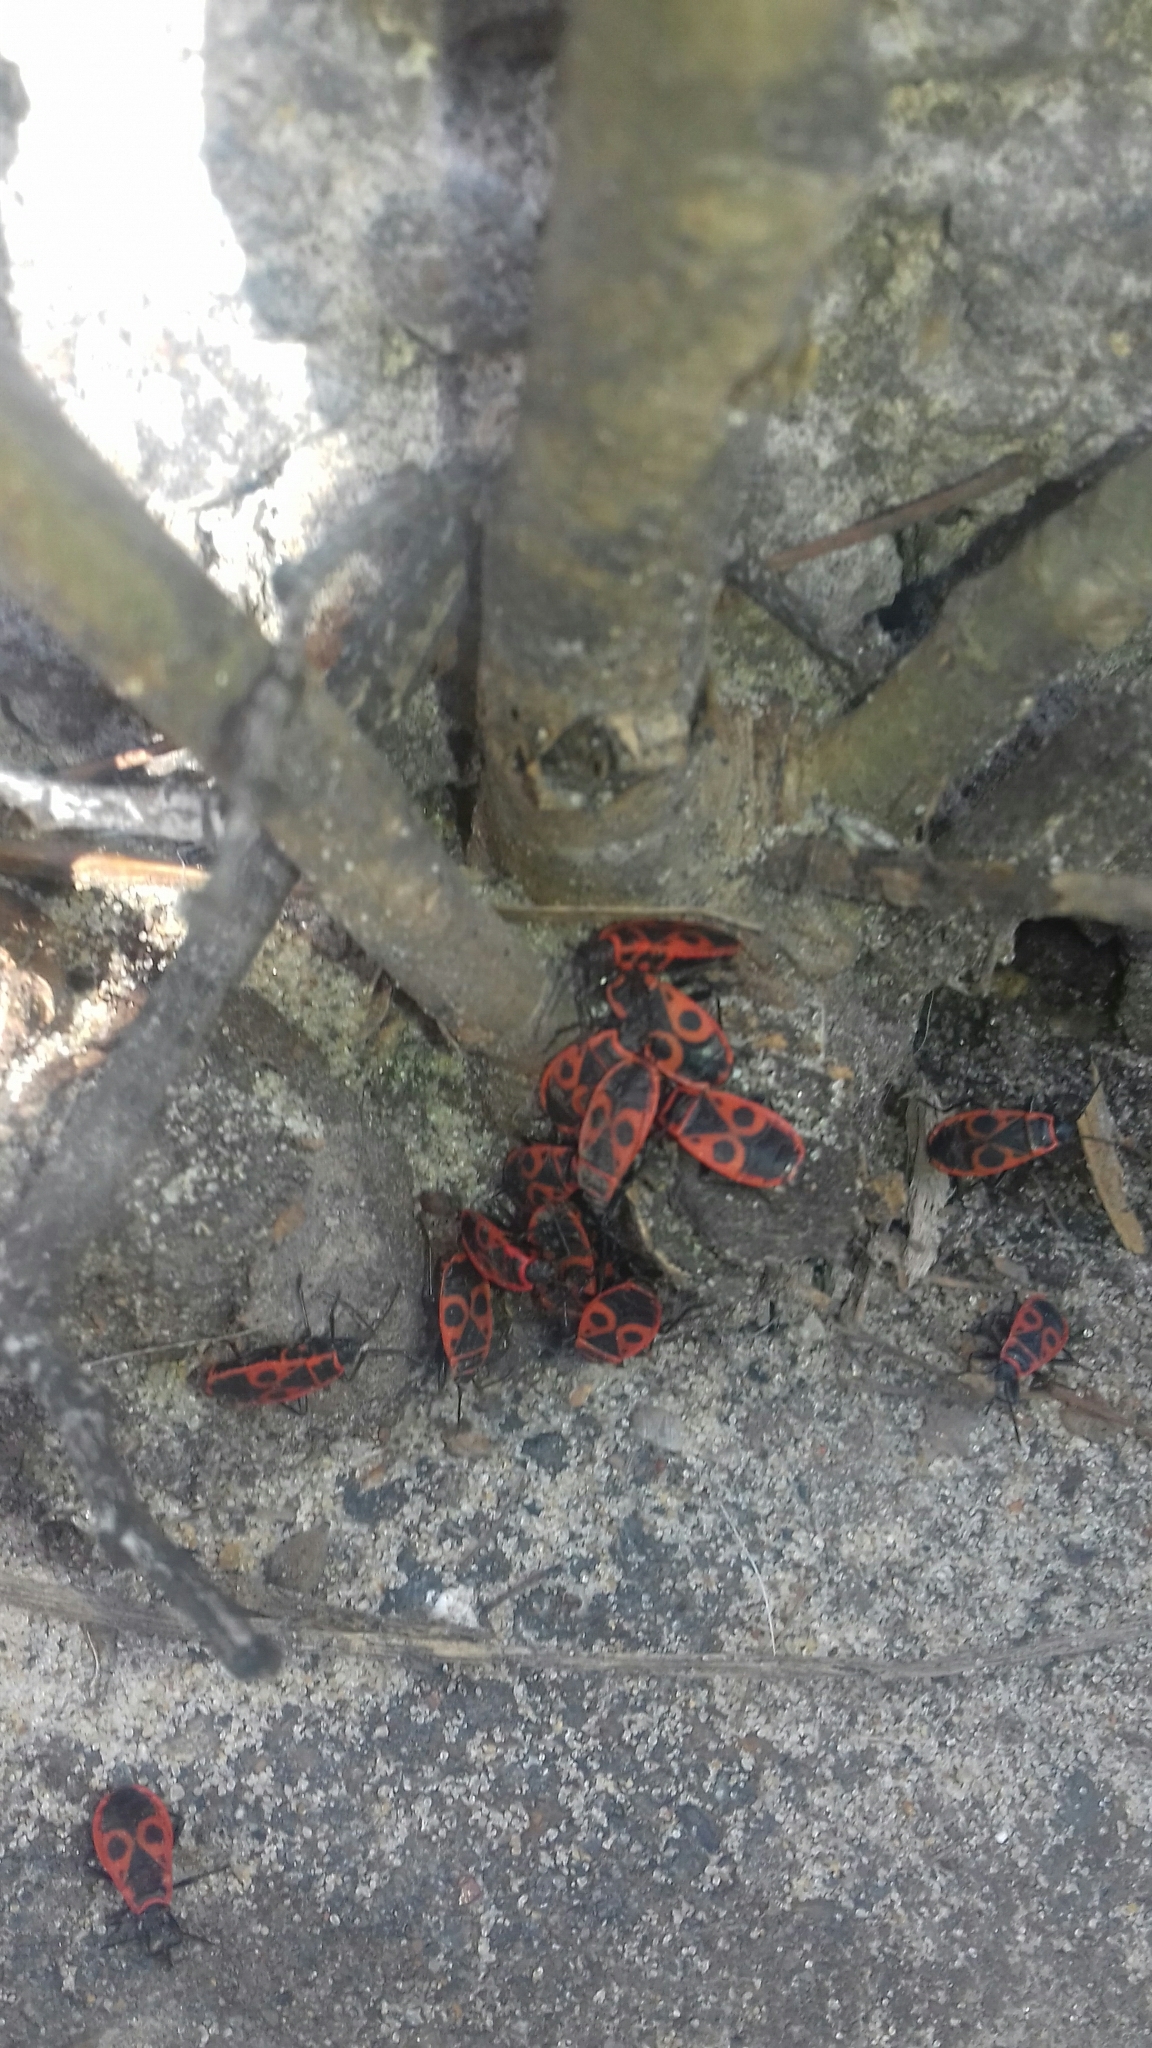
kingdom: Animalia
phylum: Arthropoda
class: Insecta
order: Hemiptera
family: Pyrrhocoridae
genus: Pyrrhocoris
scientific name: Pyrrhocoris apterus
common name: Firebug
